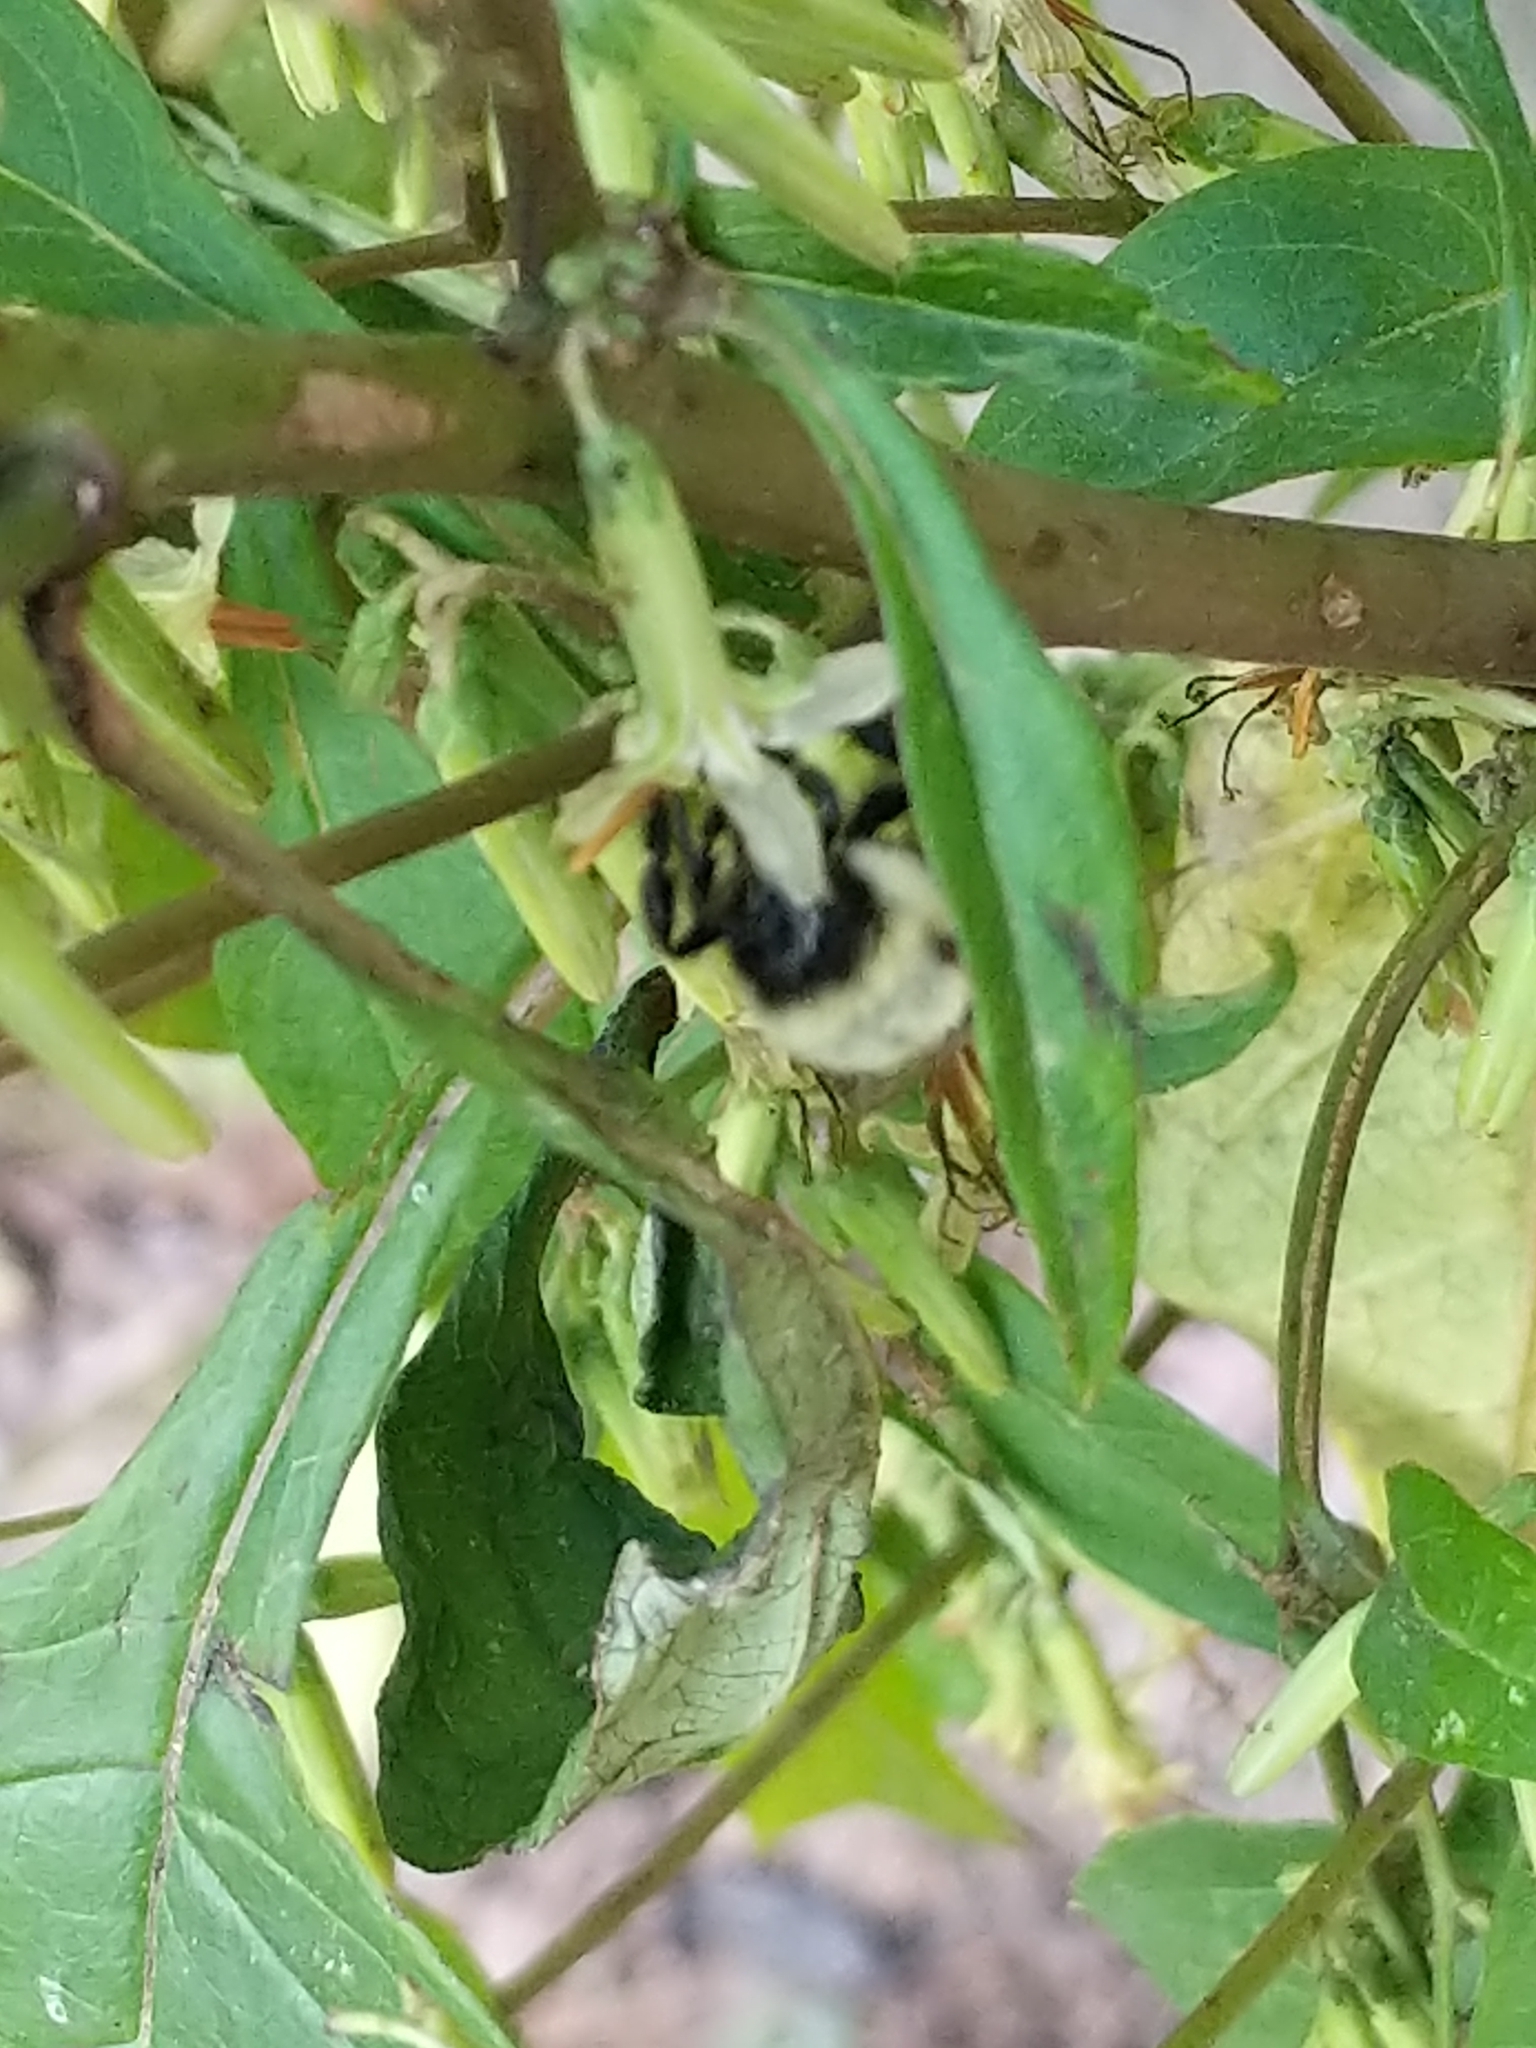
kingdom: Animalia
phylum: Arthropoda
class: Insecta
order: Hymenoptera
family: Apidae
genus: Bombus
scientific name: Bombus impatiens
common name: Common eastern bumble bee
